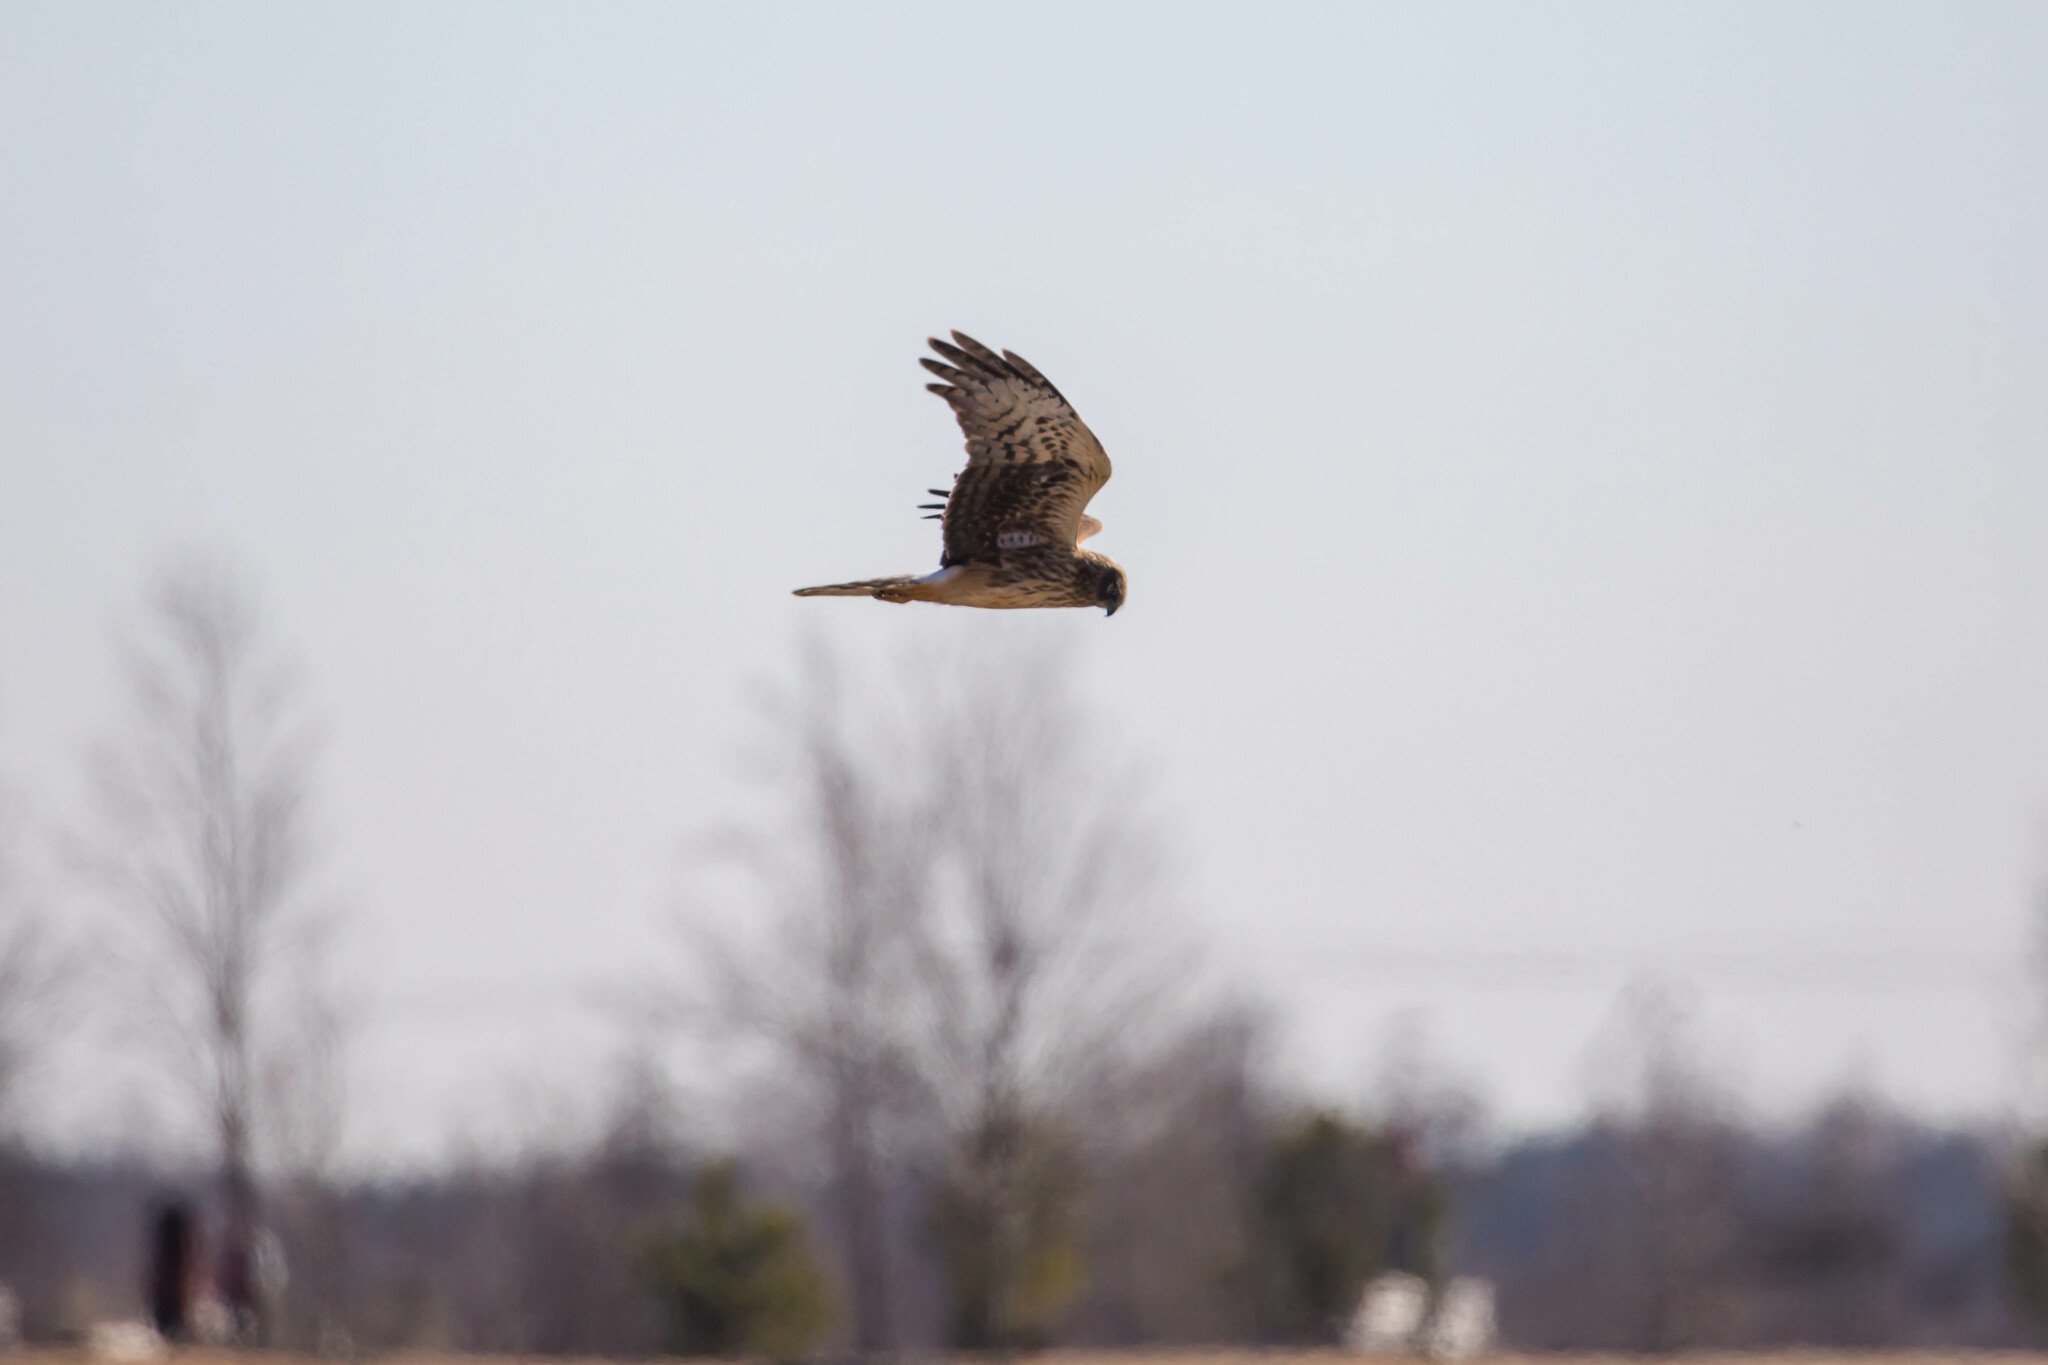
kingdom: Animalia
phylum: Chordata
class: Aves
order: Accipitriformes
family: Accipitridae
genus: Circus
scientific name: Circus cyaneus
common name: Hen harrier
